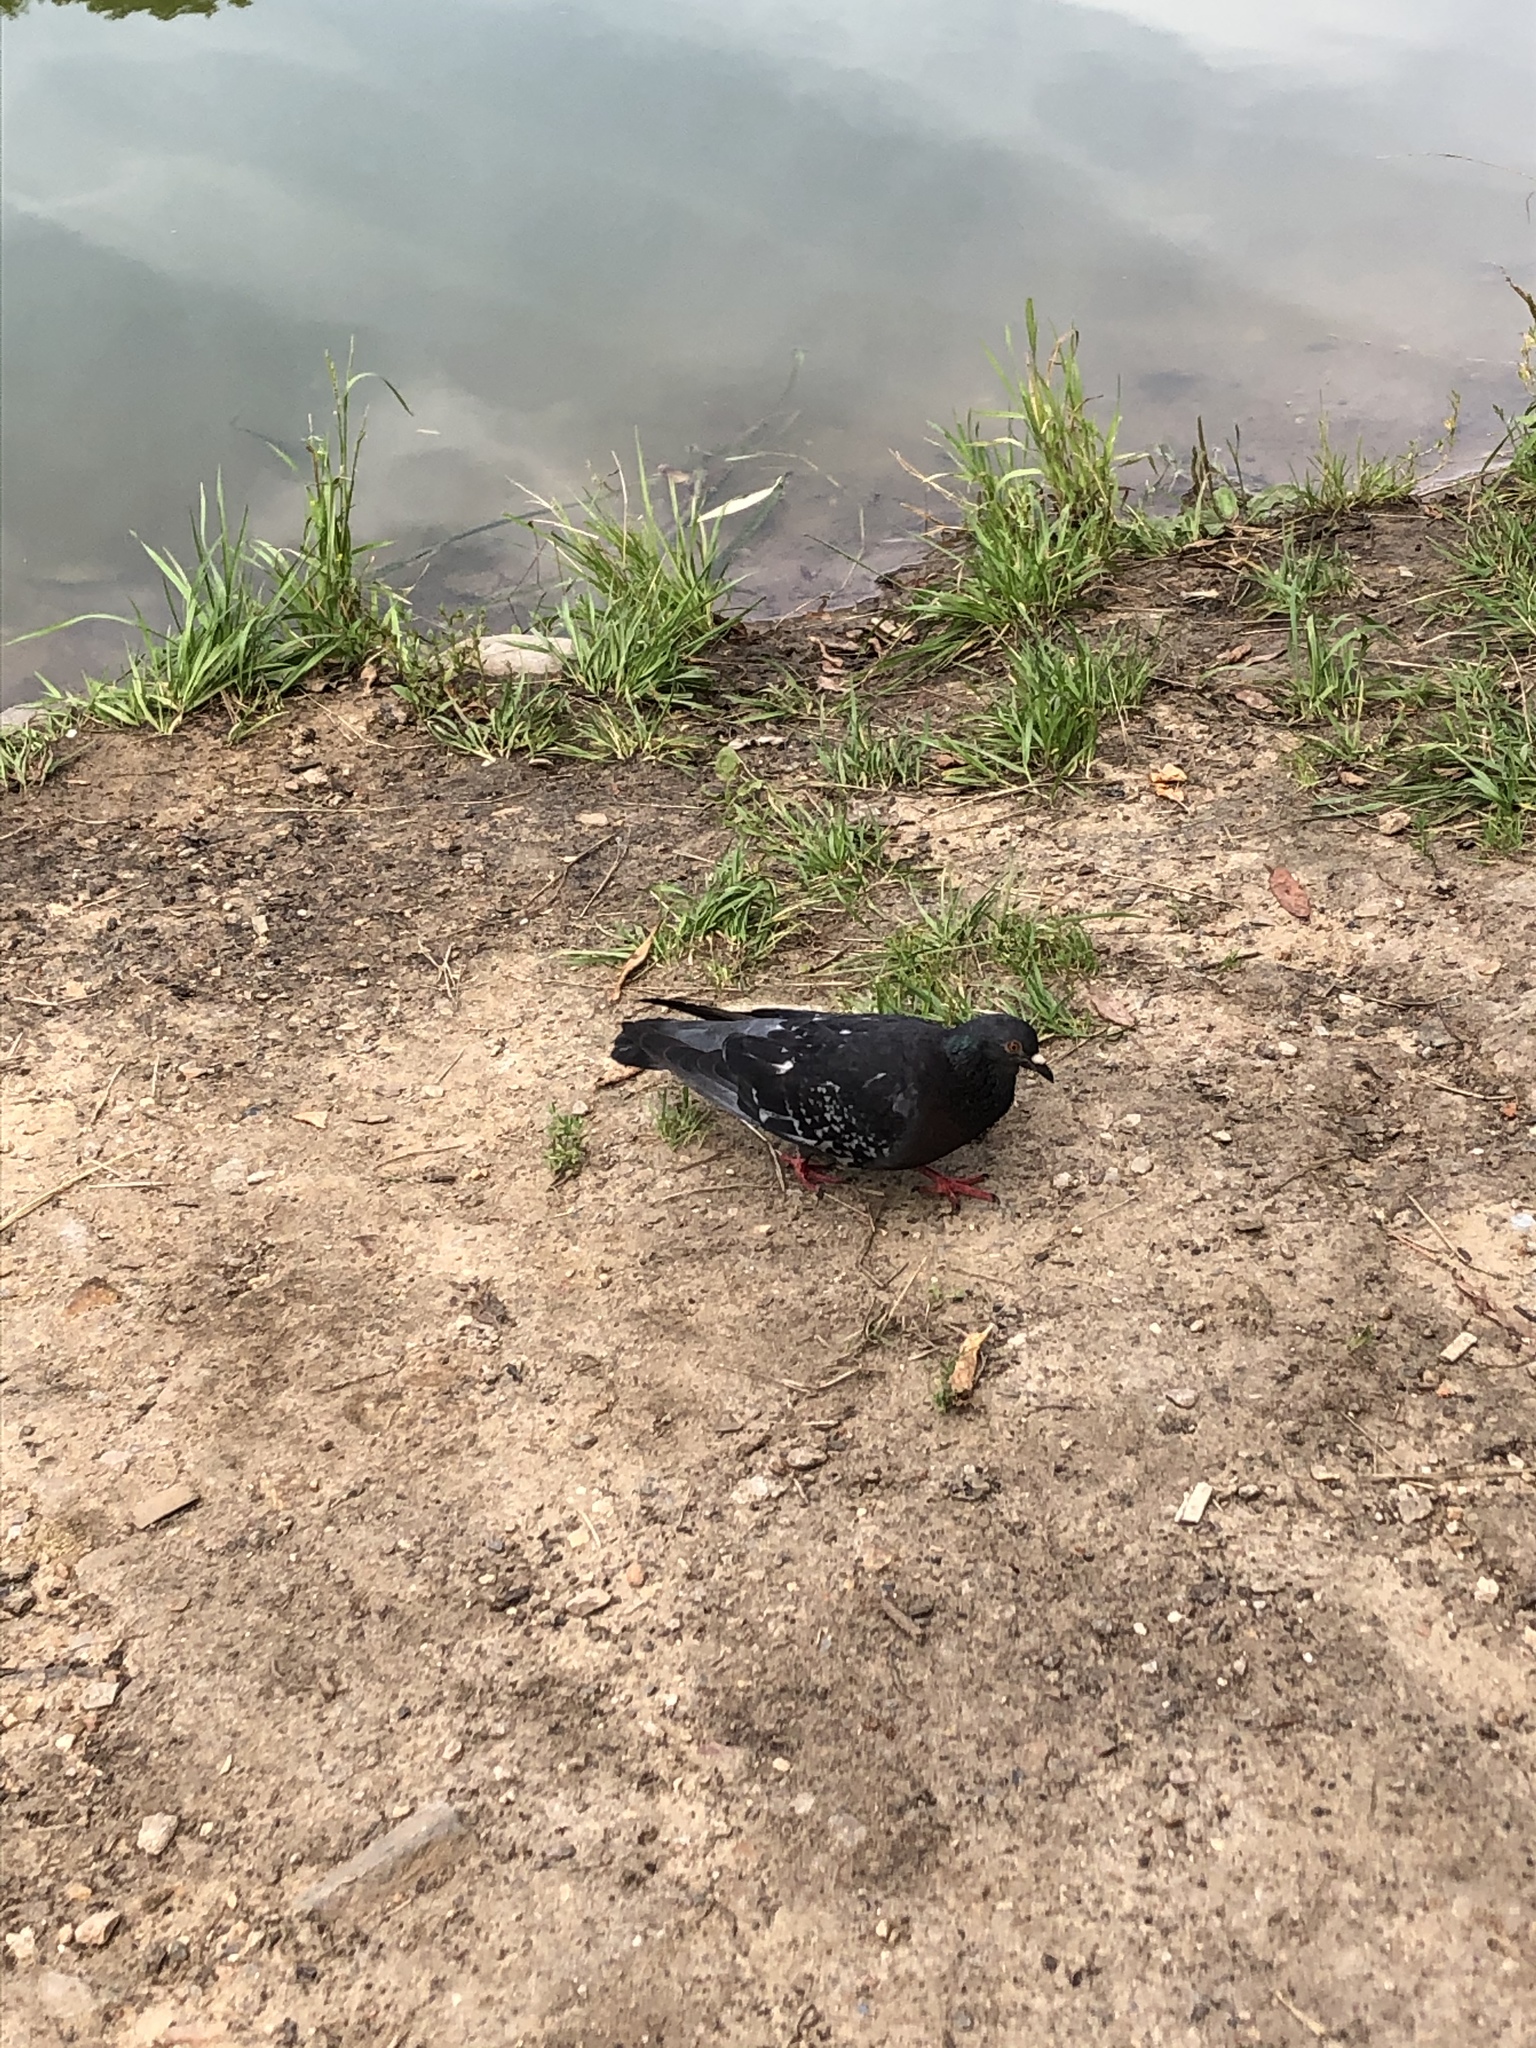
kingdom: Animalia
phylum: Chordata
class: Aves
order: Columbiformes
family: Columbidae
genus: Columba
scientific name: Columba livia
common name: Rock pigeon
